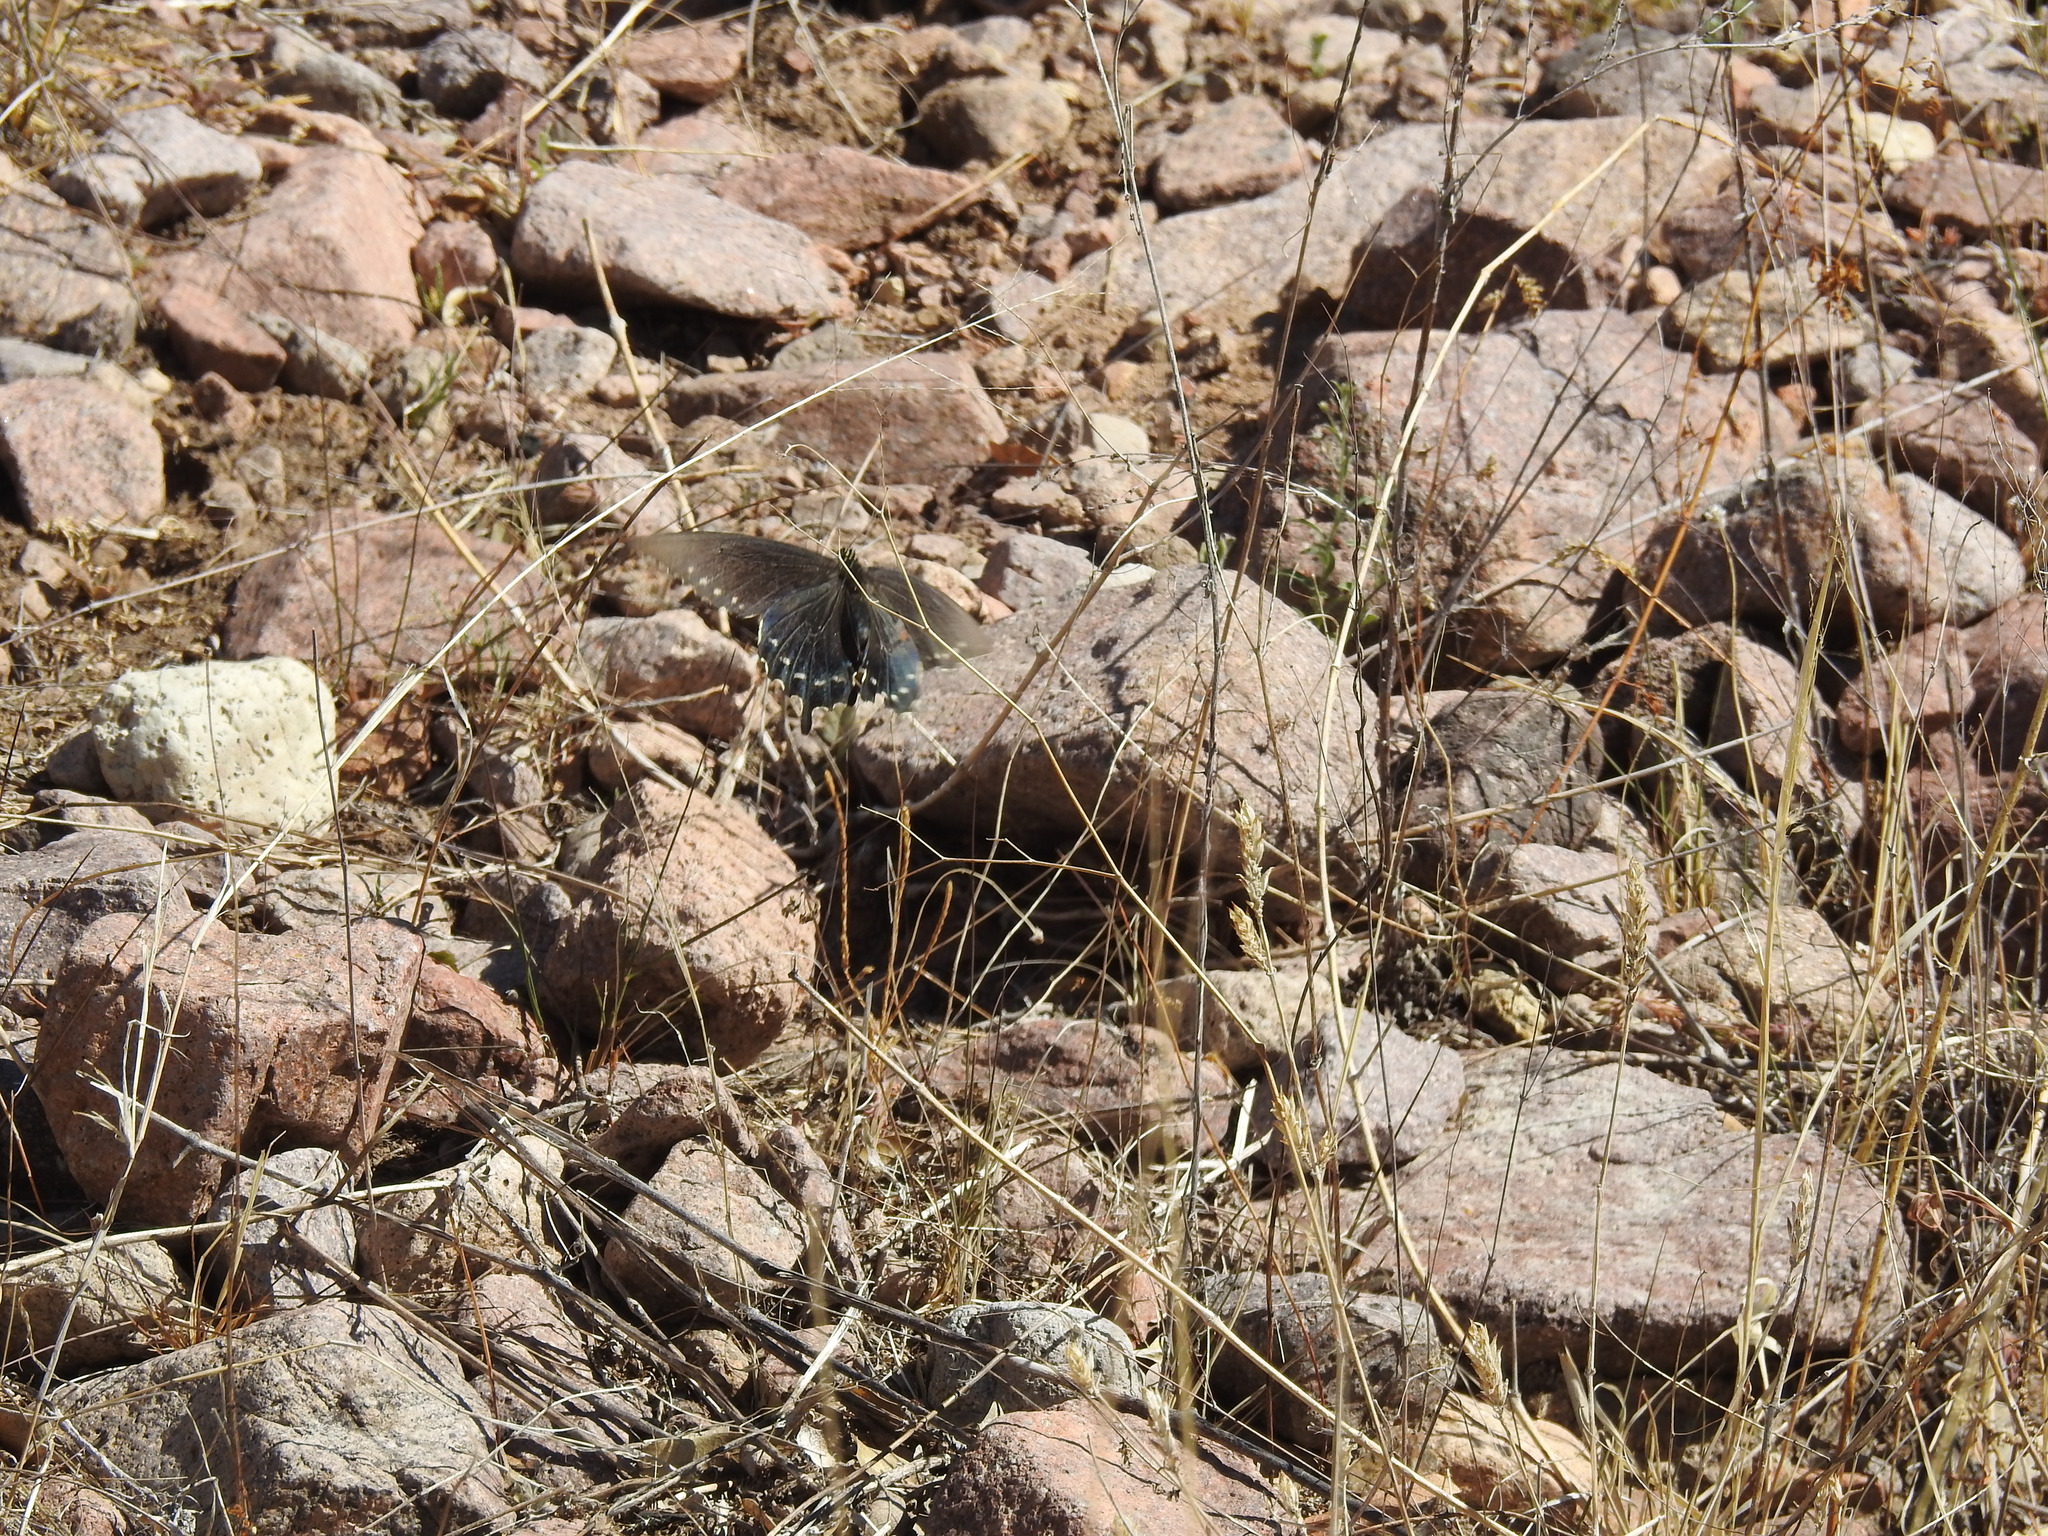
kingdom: Animalia
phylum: Arthropoda
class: Insecta
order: Lepidoptera
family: Papilionidae
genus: Battus
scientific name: Battus philenor
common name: Pipevine swallowtail
